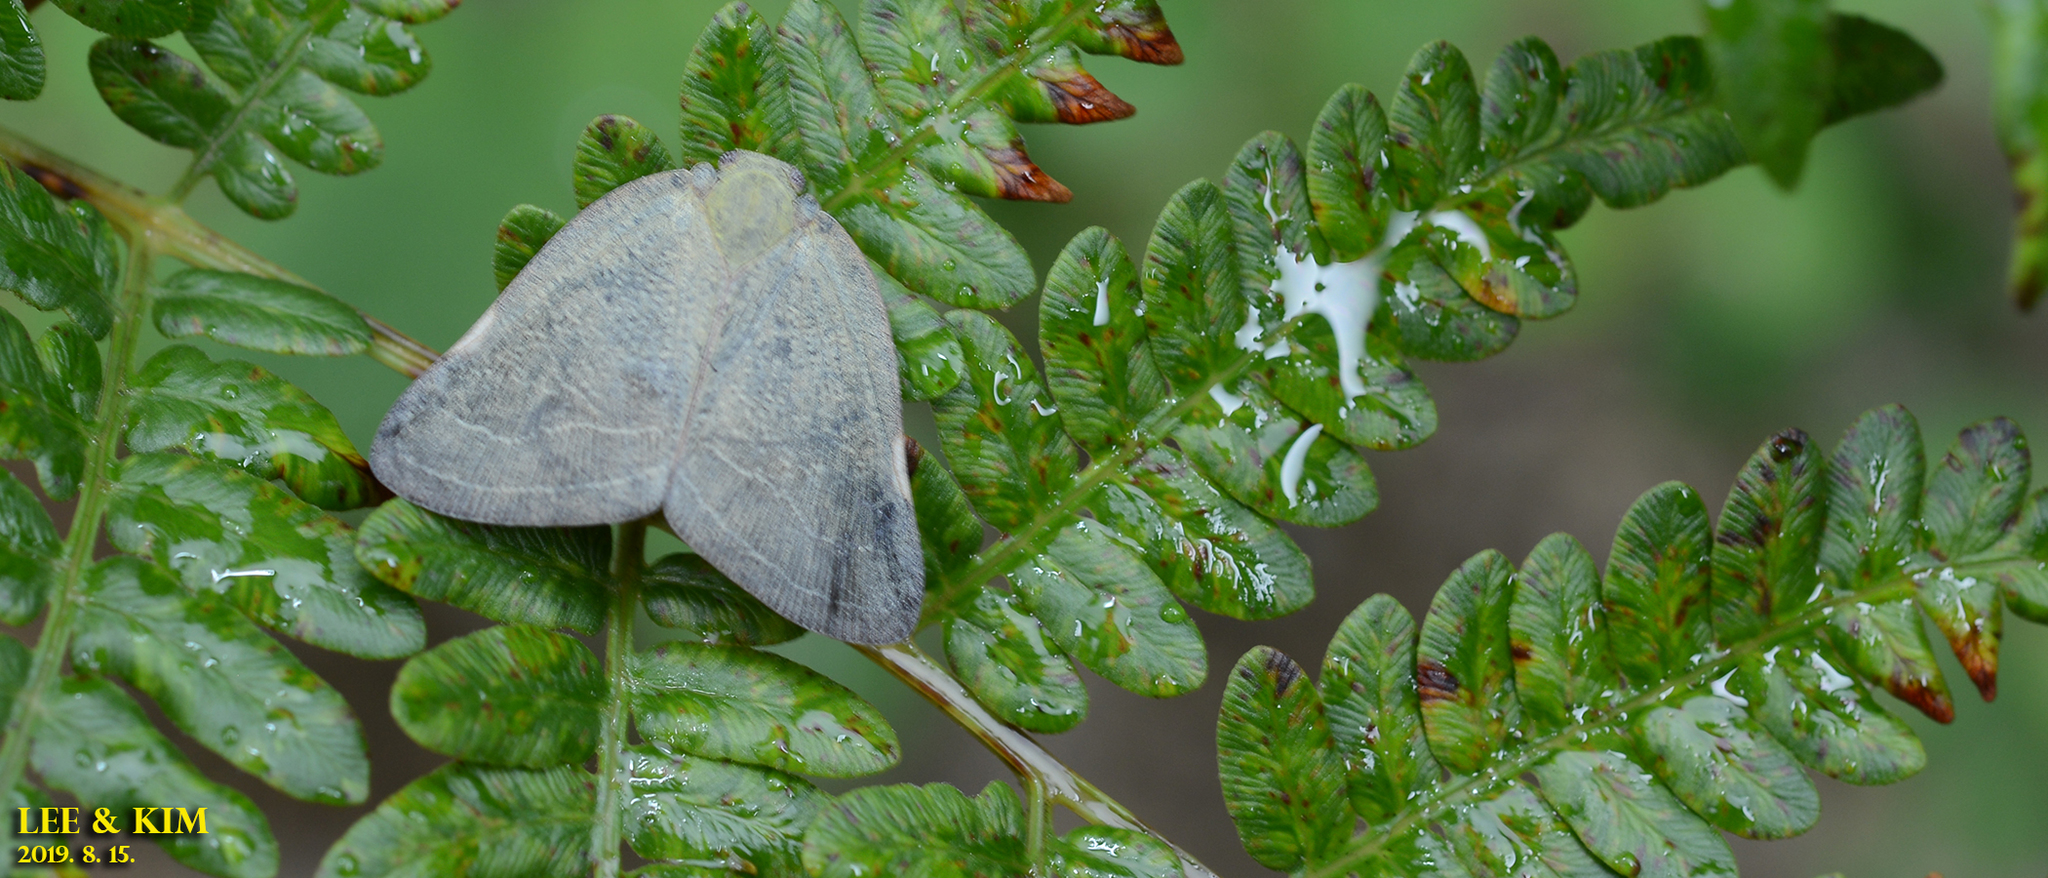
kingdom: Animalia
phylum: Arthropoda
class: Insecta
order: Hemiptera
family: Ricaniidae
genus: Ricanula
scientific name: Ricanula sublimata
